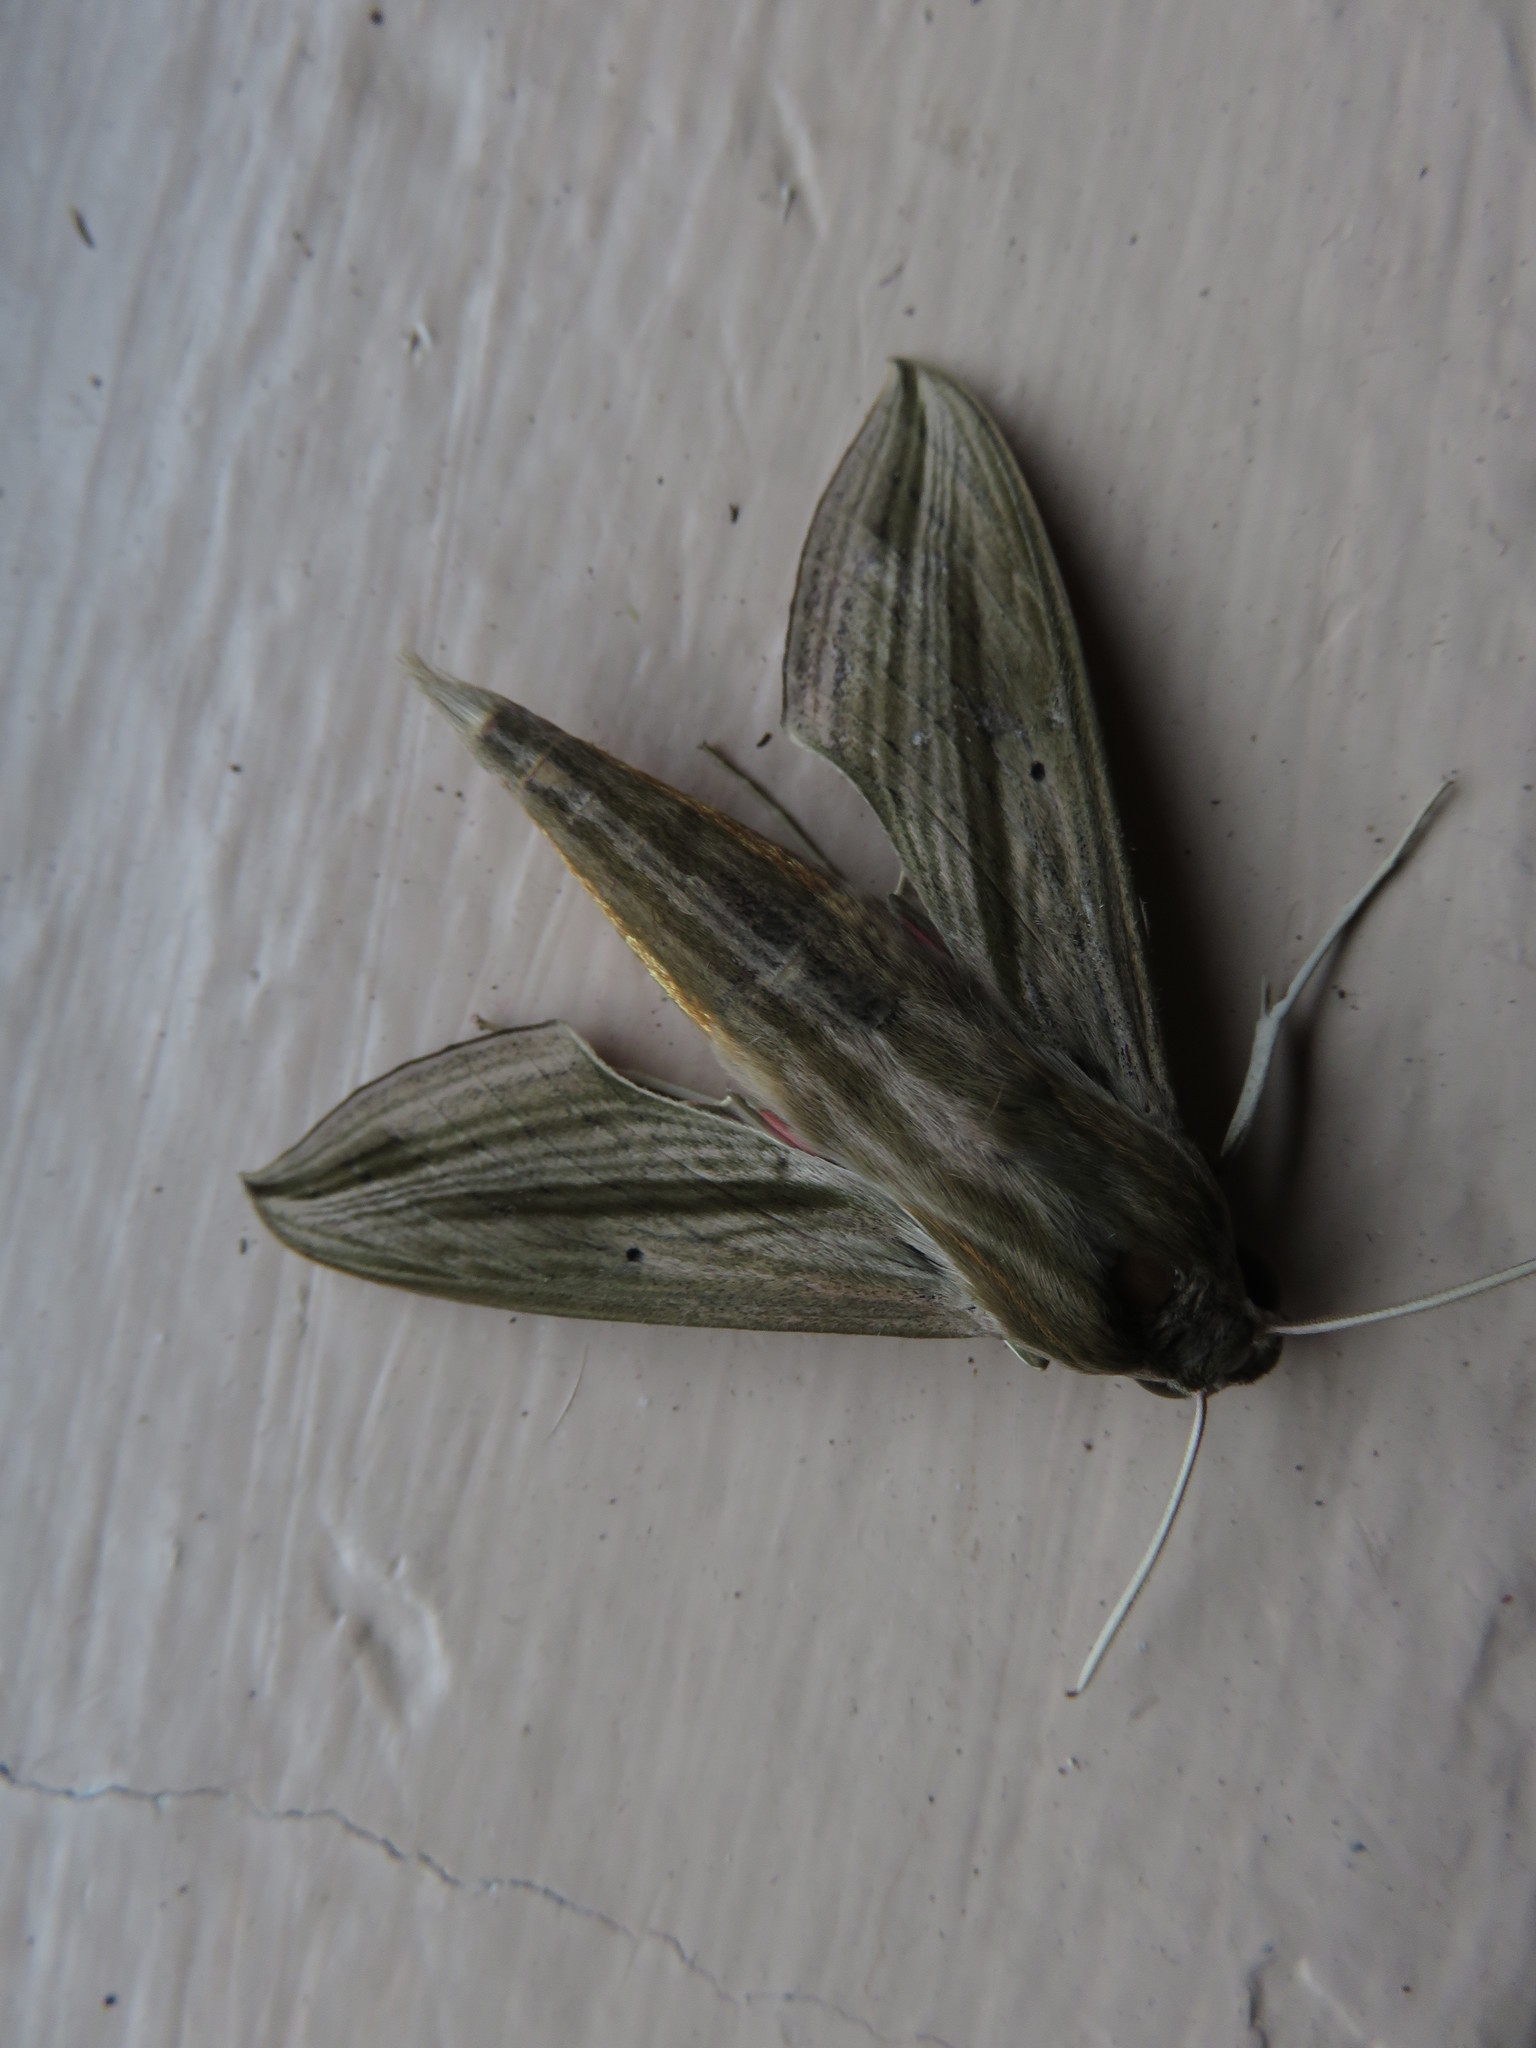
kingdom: Animalia
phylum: Arthropoda
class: Insecta
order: Lepidoptera
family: Sphingidae
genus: Hippotion
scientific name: Hippotion eson
